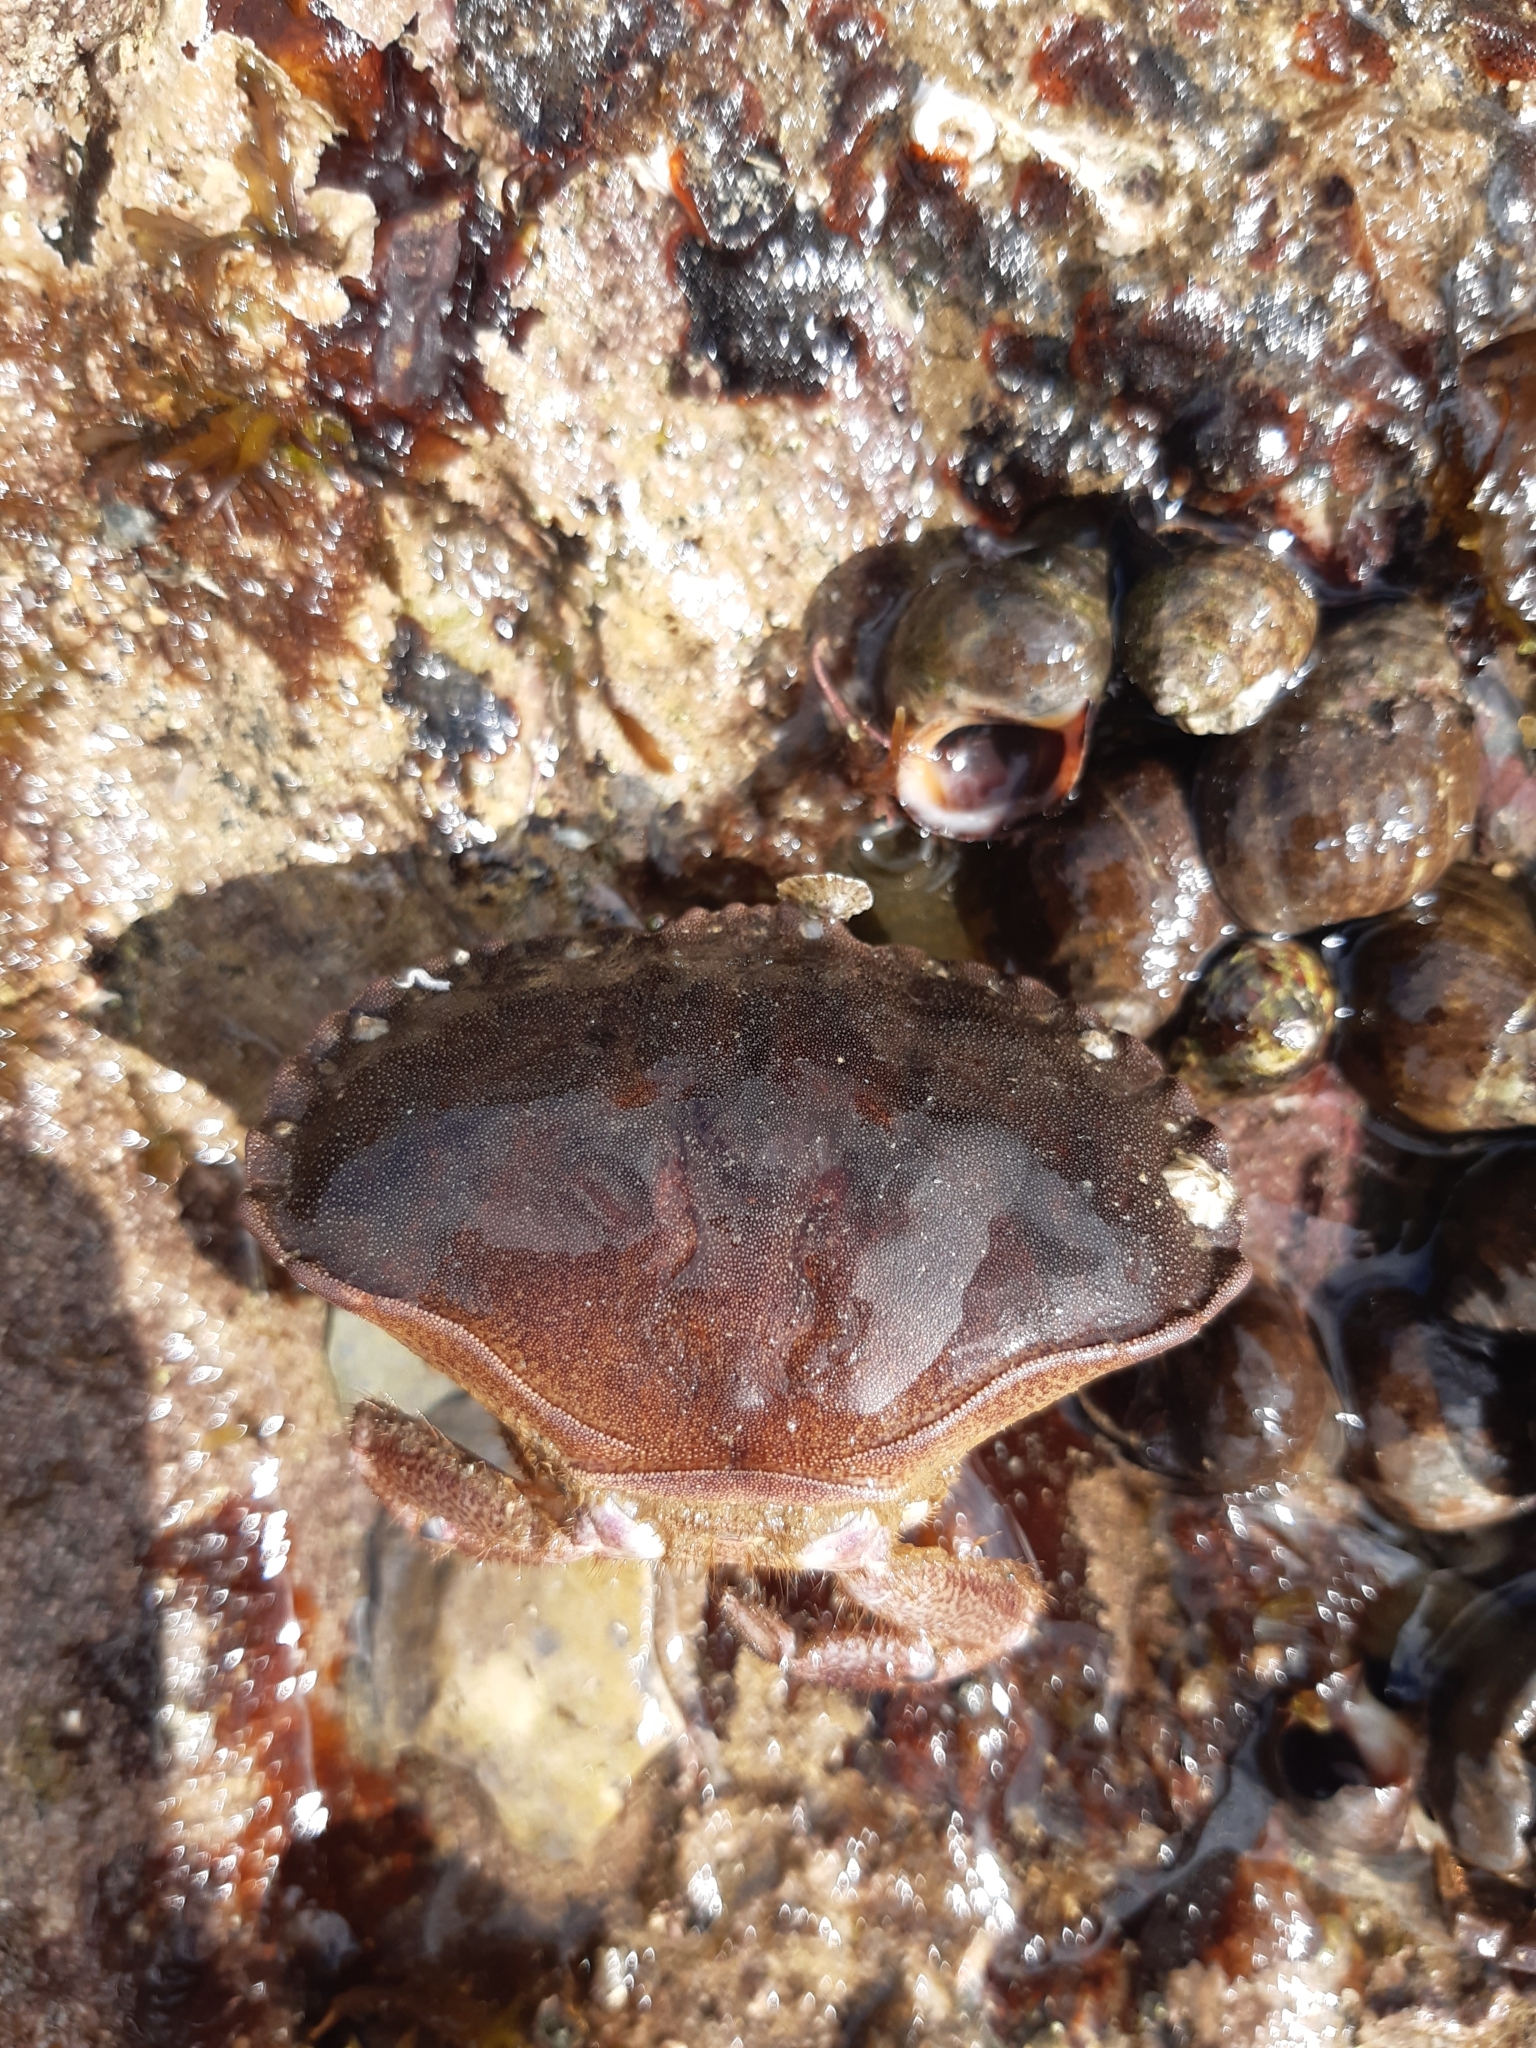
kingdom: Animalia
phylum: Arthropoda
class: Malacostraca
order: Decapoda
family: Cancridae
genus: Cancer
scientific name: Cancer pagurus
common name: Edible crab
